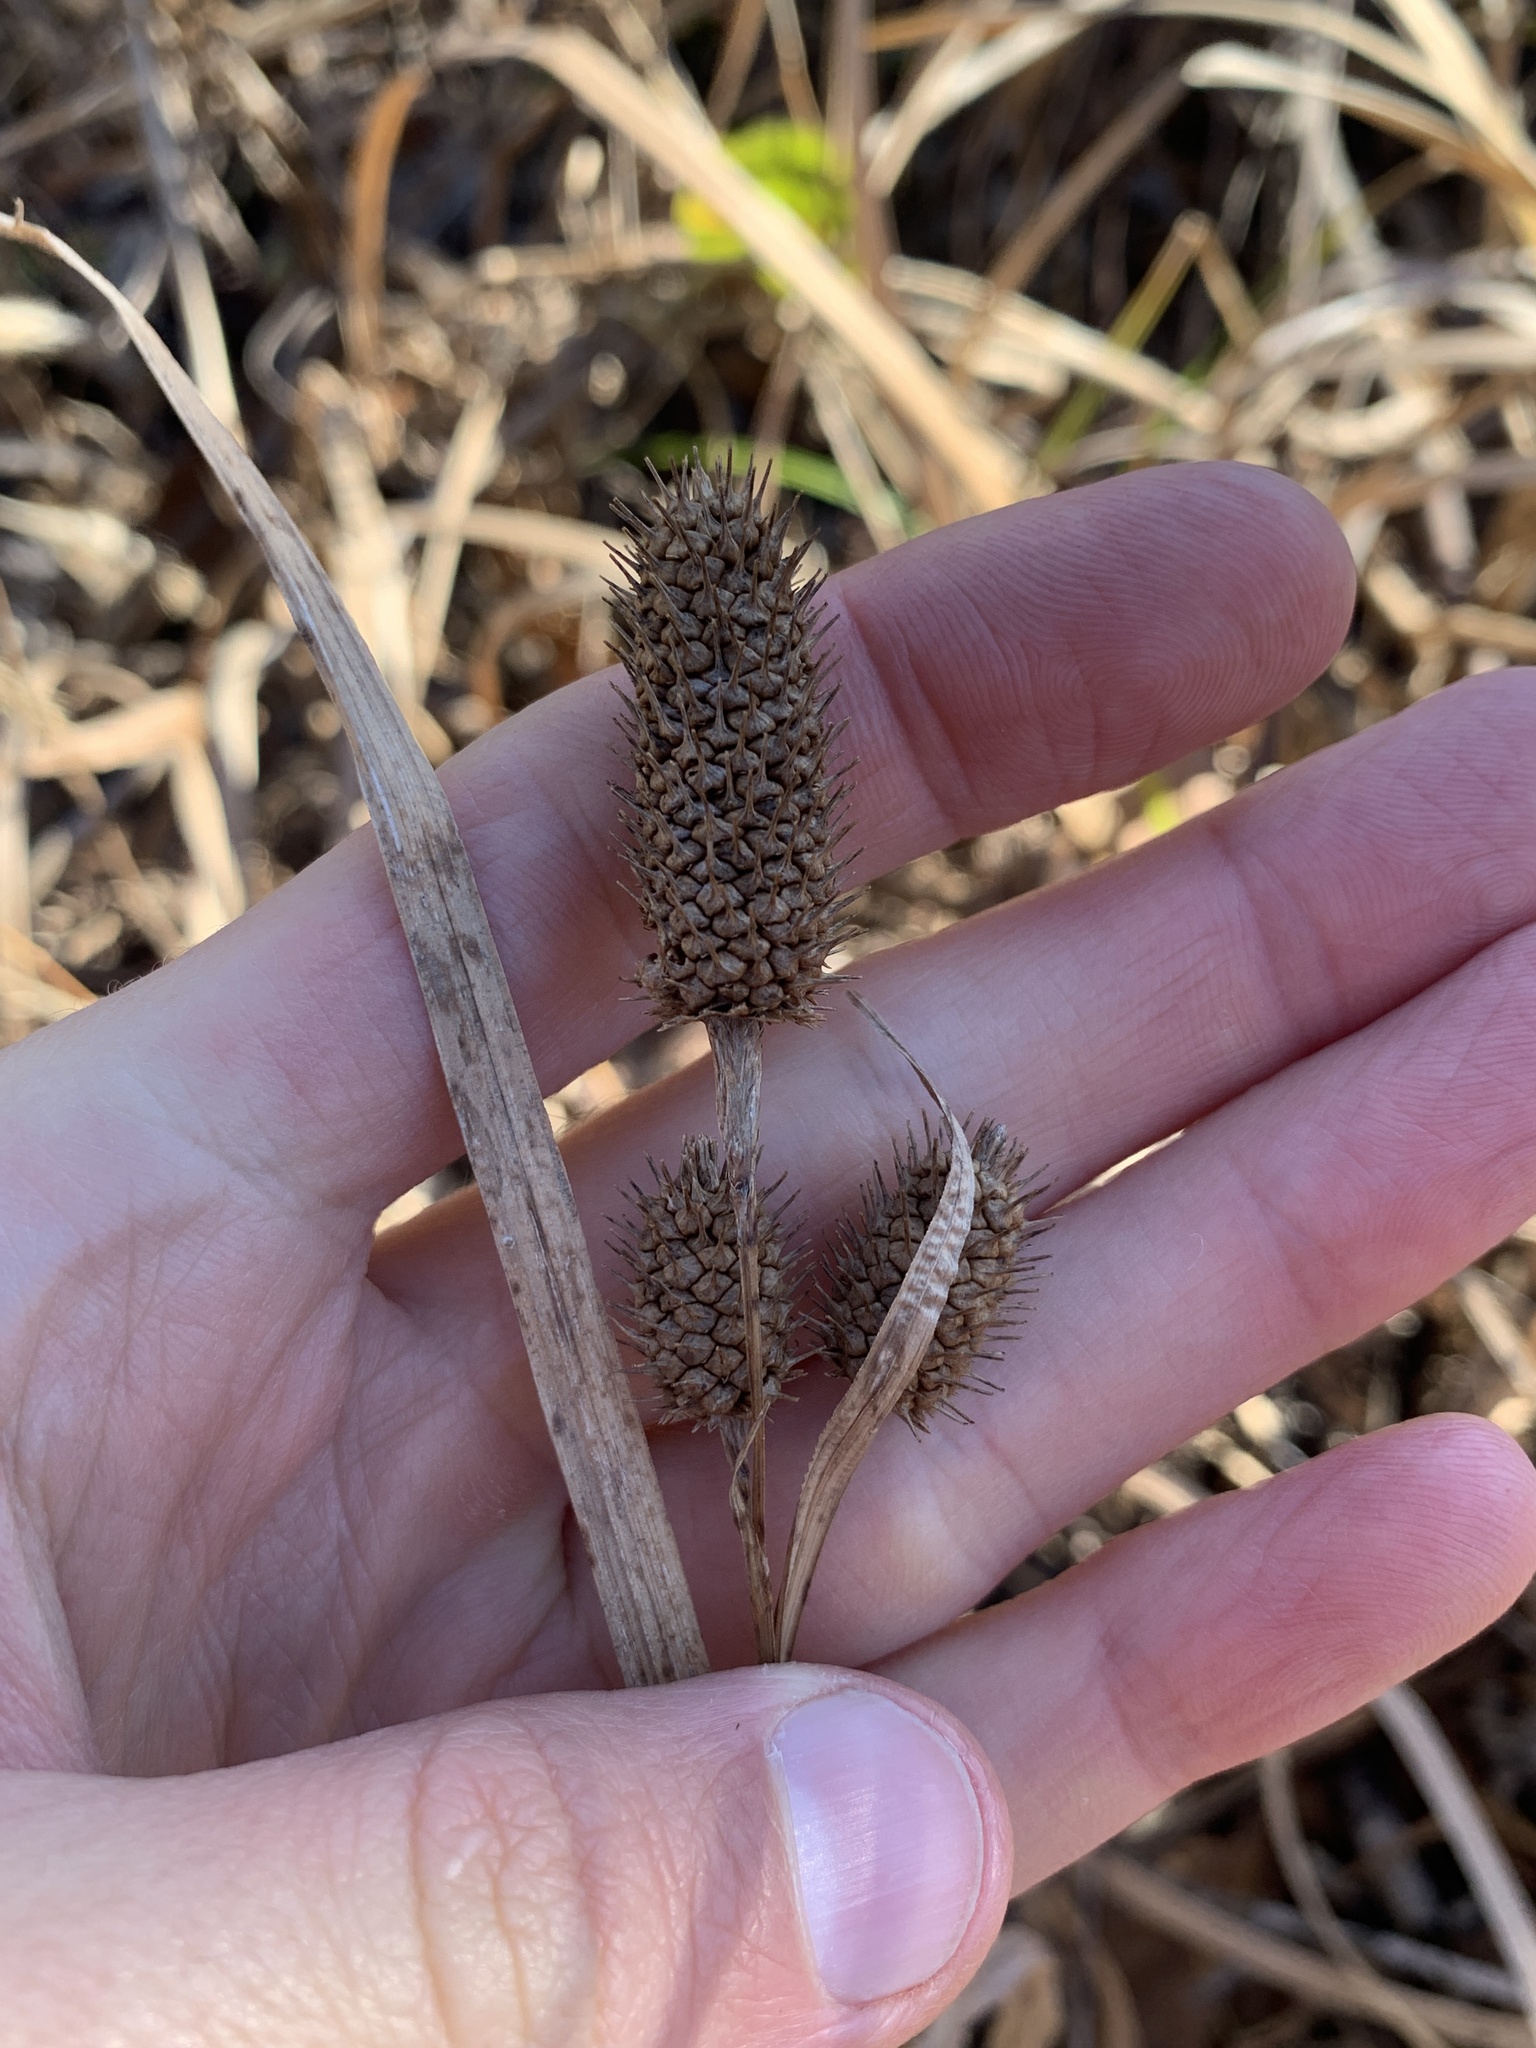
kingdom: Plantae
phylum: Tracheophyta
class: Liliopsida
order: Poales
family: Cyperaceae
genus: Carex
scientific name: Carex typhina
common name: Cattail sedge
